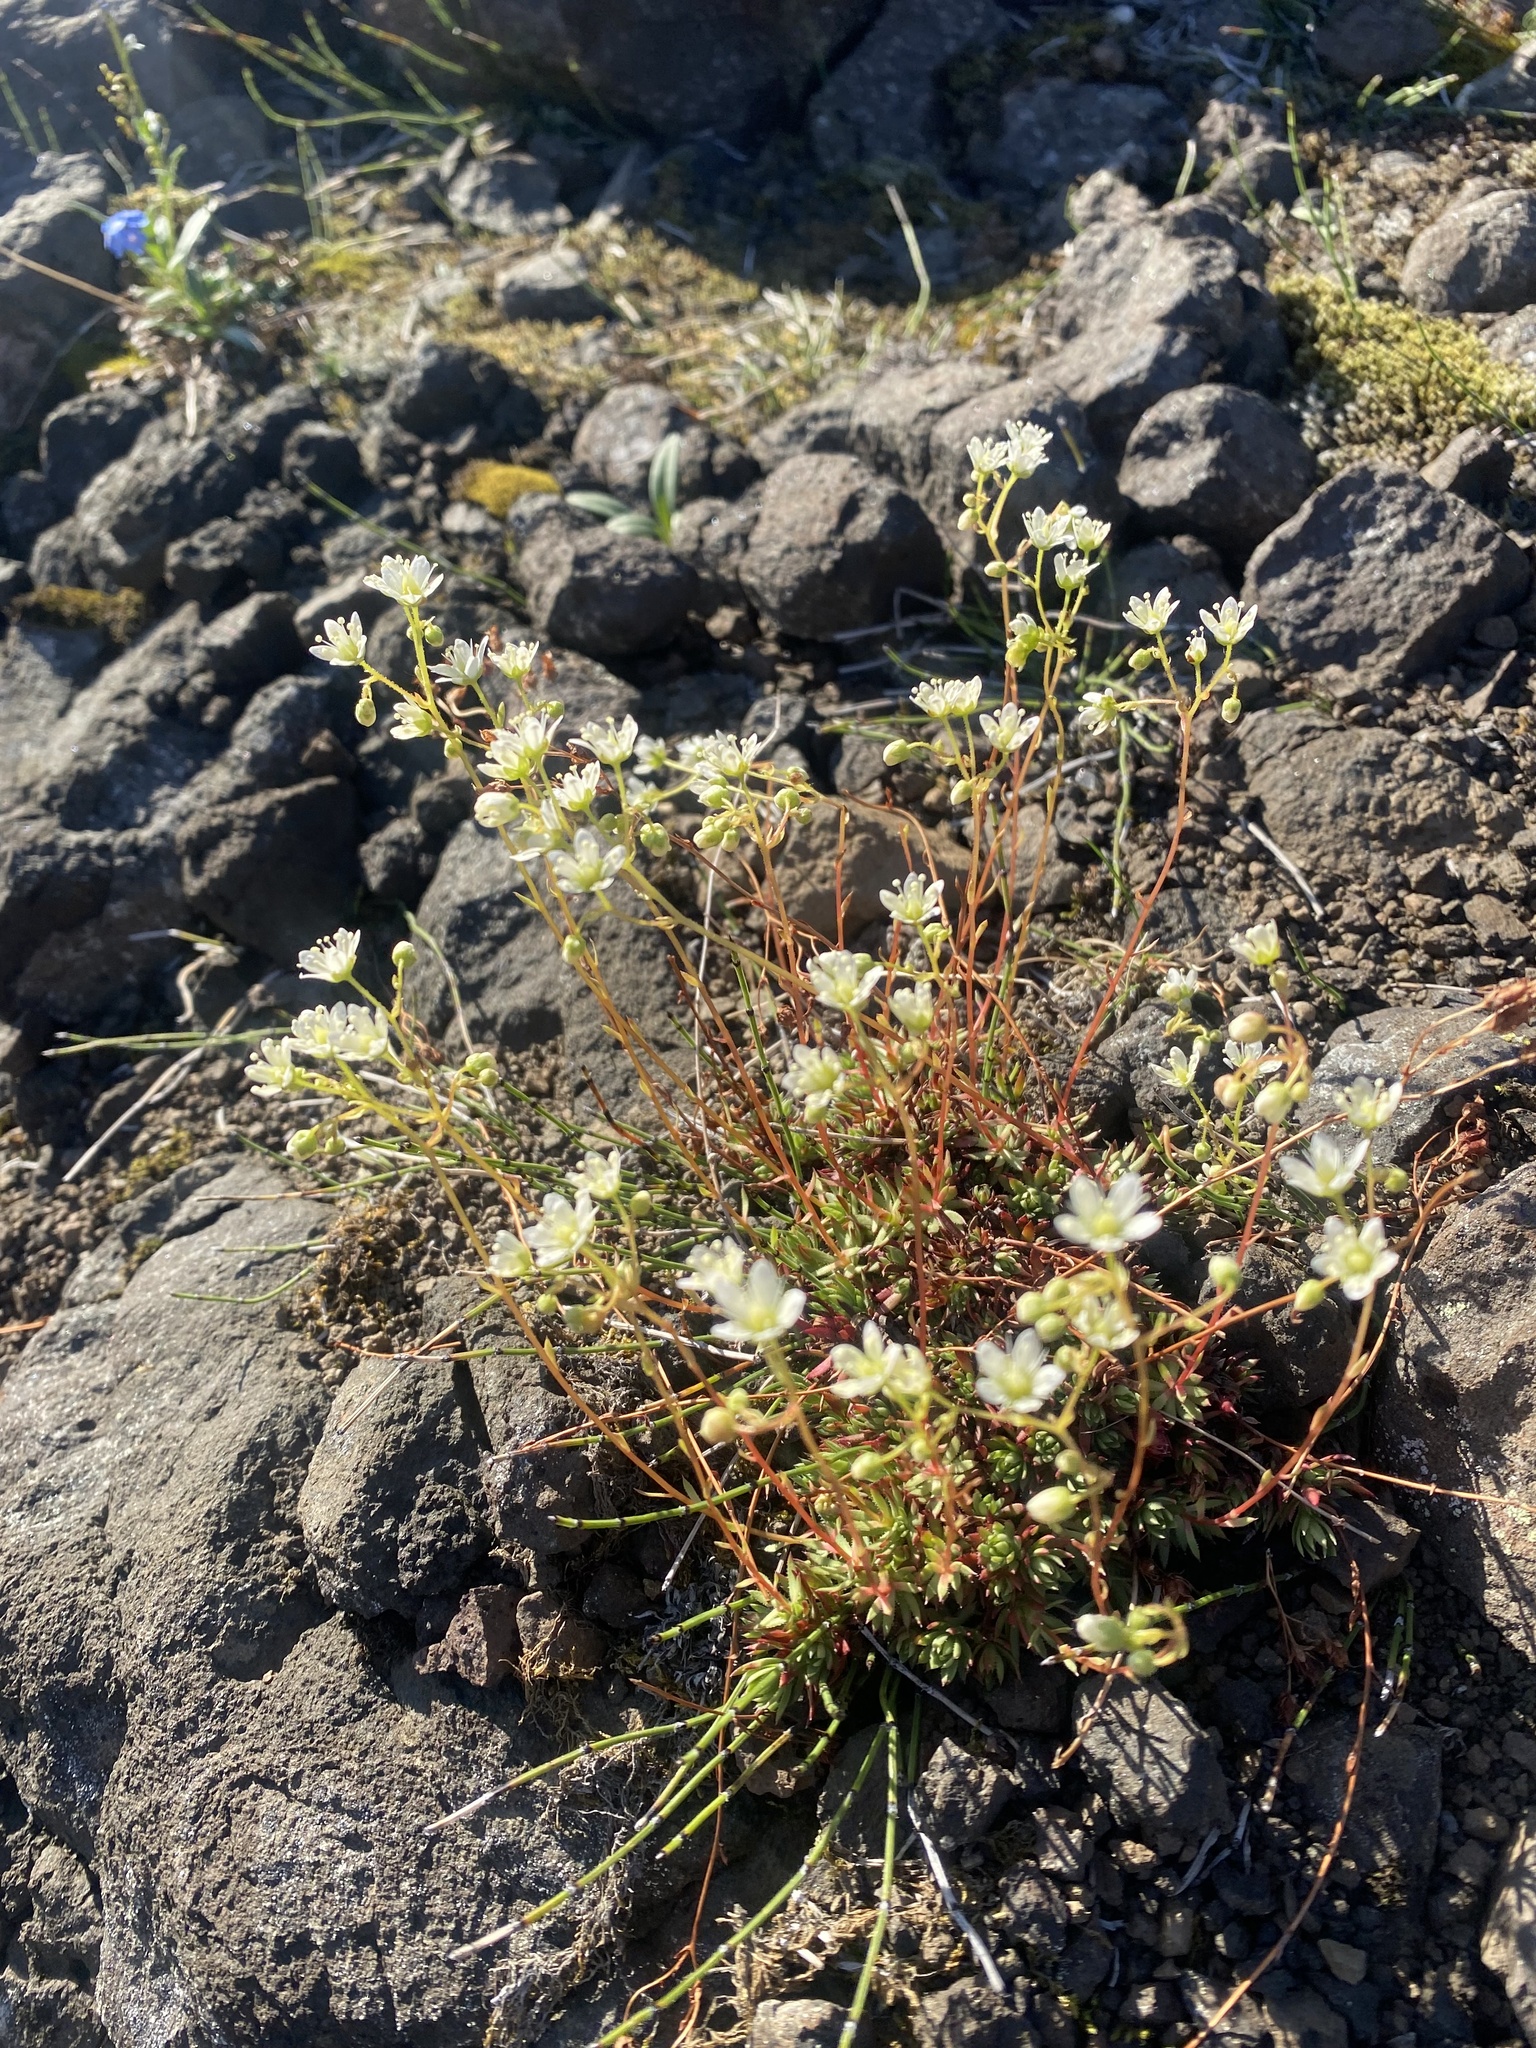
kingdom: Plantae
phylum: Tracheophyta
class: Magnoliopsida
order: Saxifragales
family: Saxifragaceae
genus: Saxifraga
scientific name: Saxifraga
